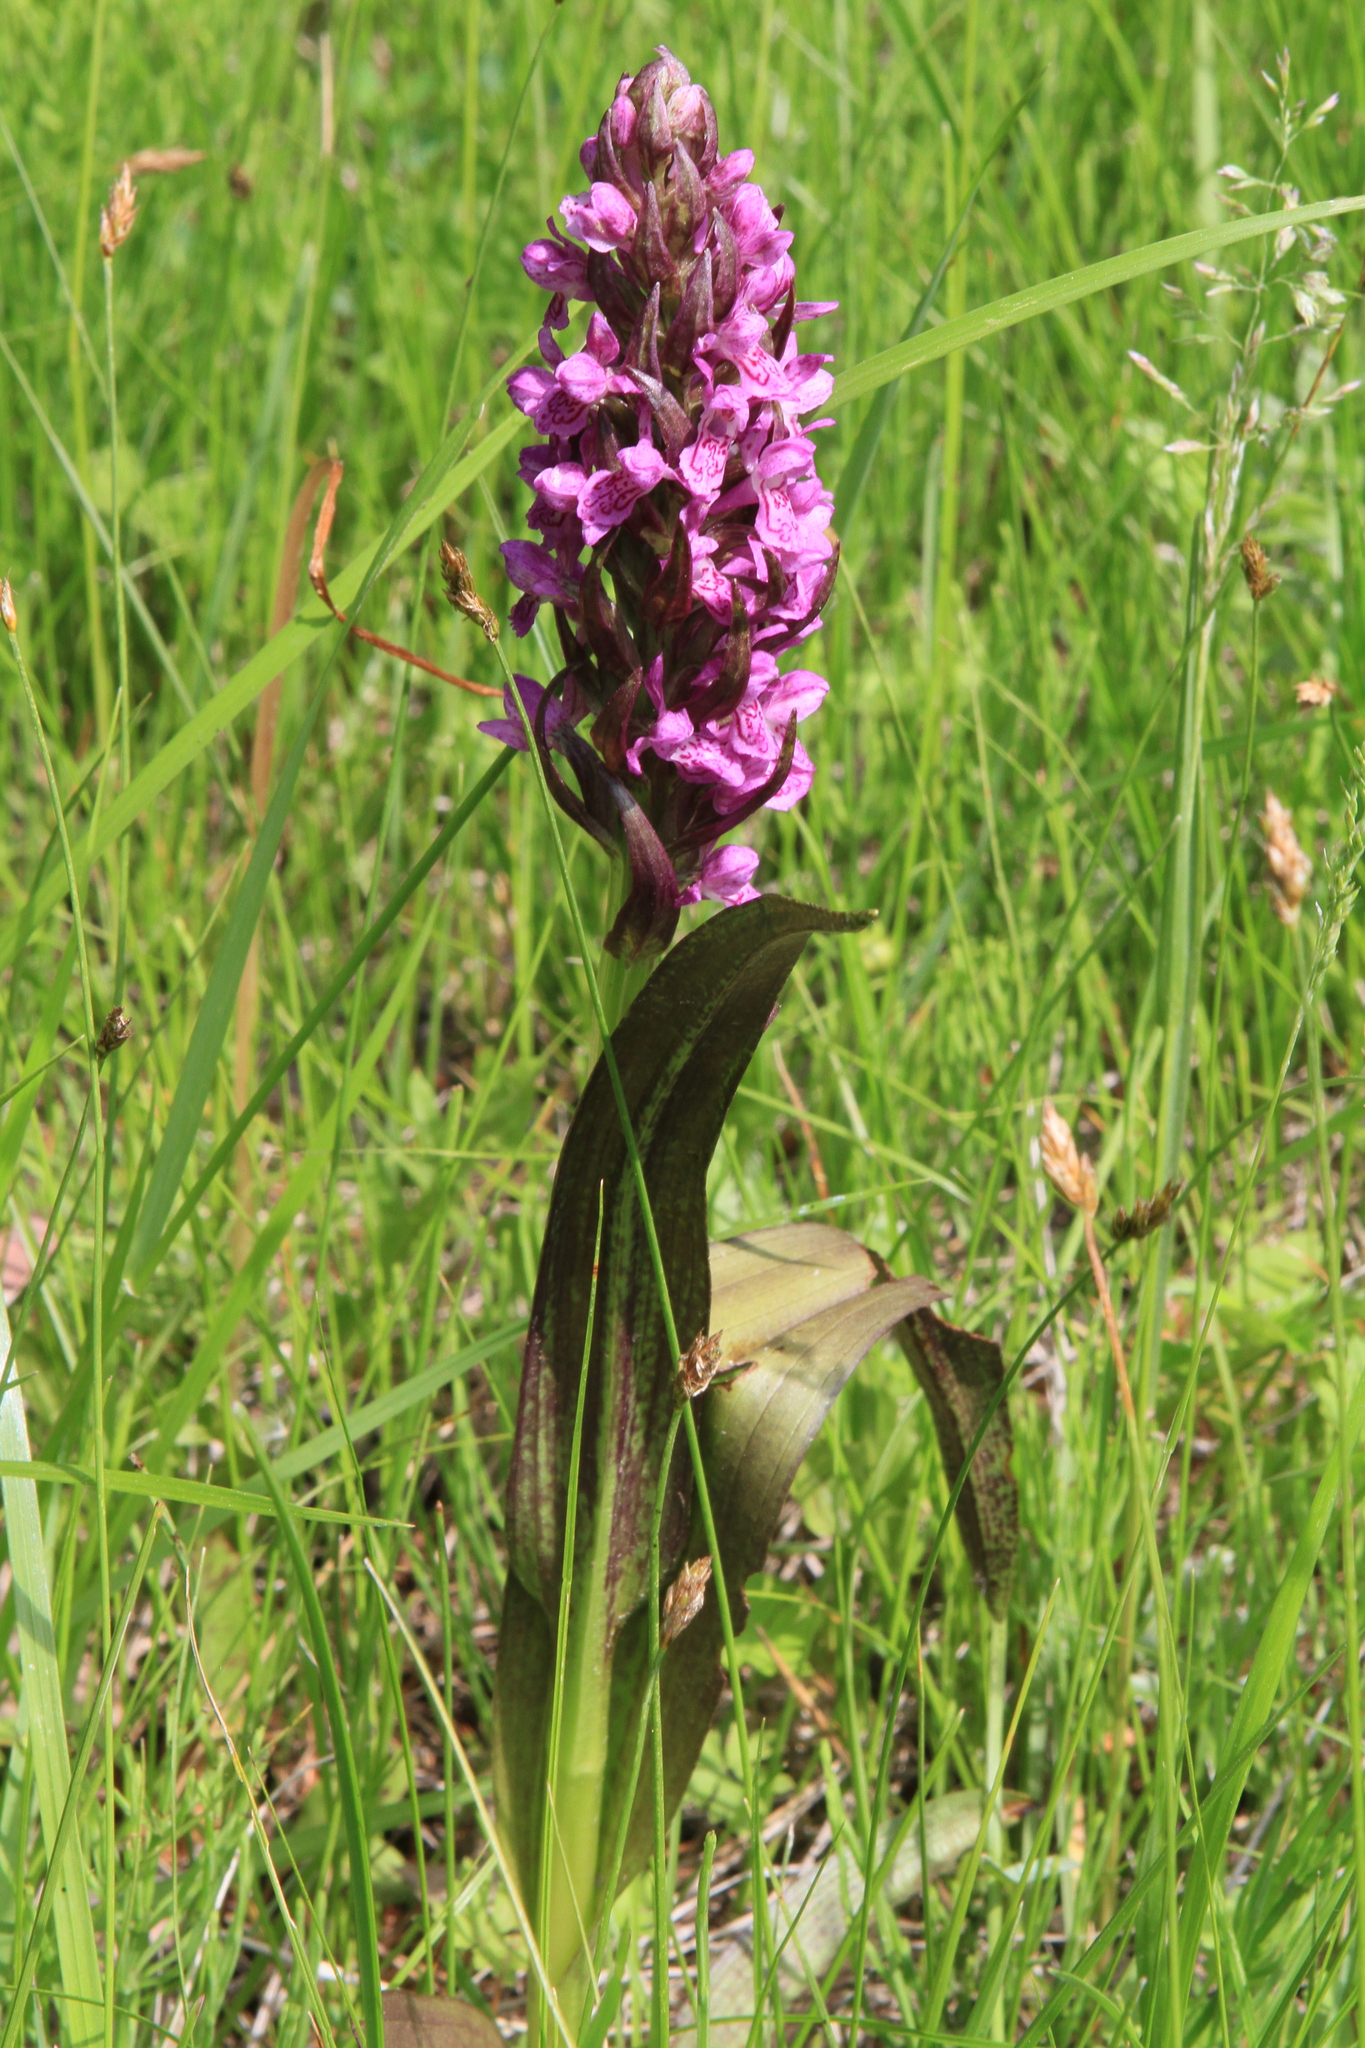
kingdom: Plantae
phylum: Tracheophyta
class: Liliopsida
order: Asparagales
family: Orchidaceae
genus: Dactylorhiza
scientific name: Dactylorhiza incarnata
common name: Early marsh-orchid
